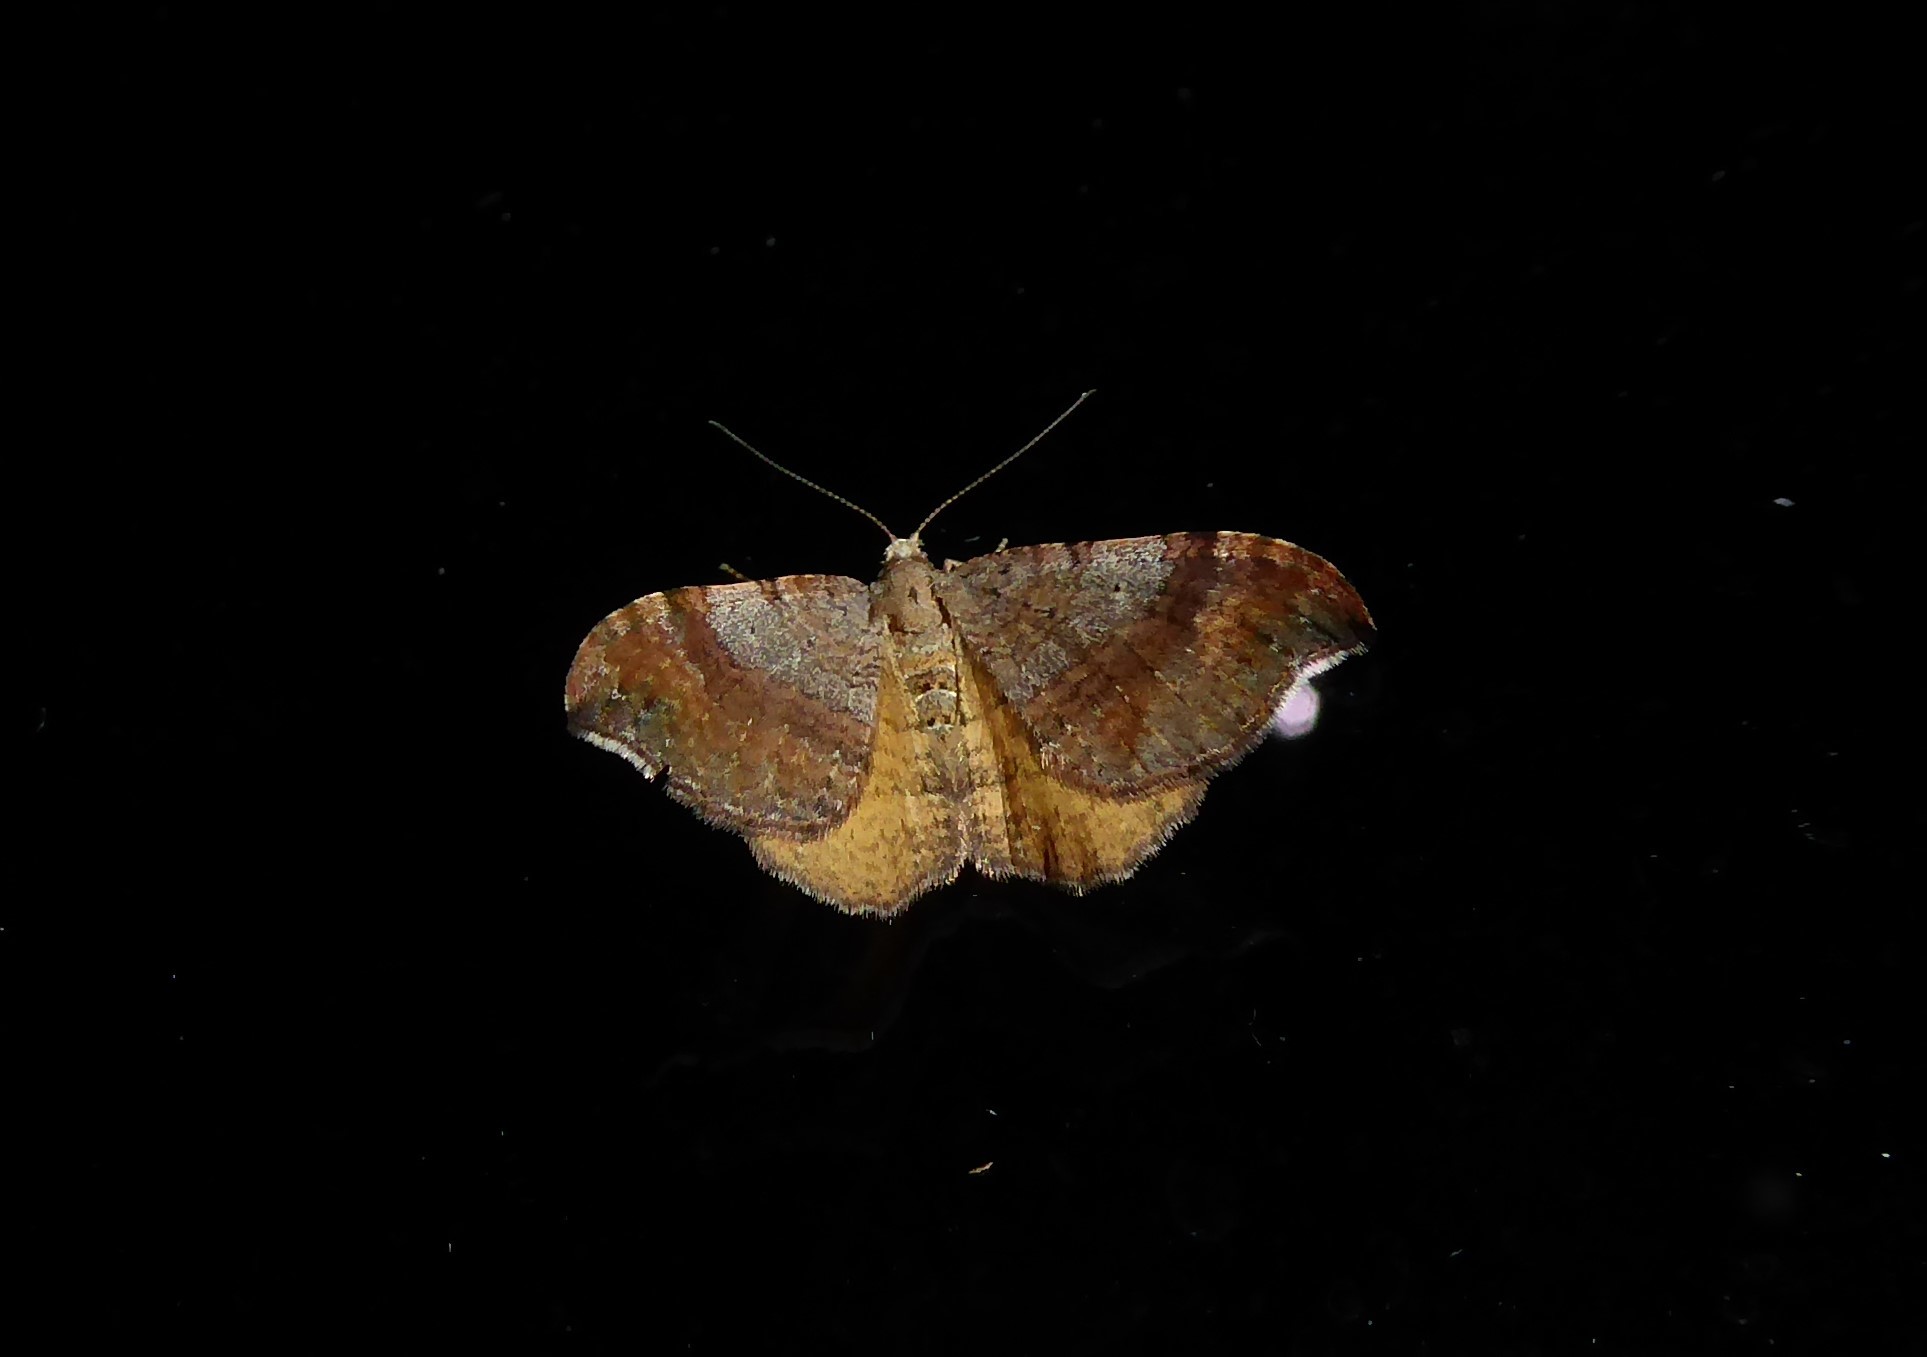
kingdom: Animalia
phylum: Arthropoda
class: Insecta
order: Lepidoptera
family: Geometridae
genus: Homodotis
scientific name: Homodotis megaspilata
